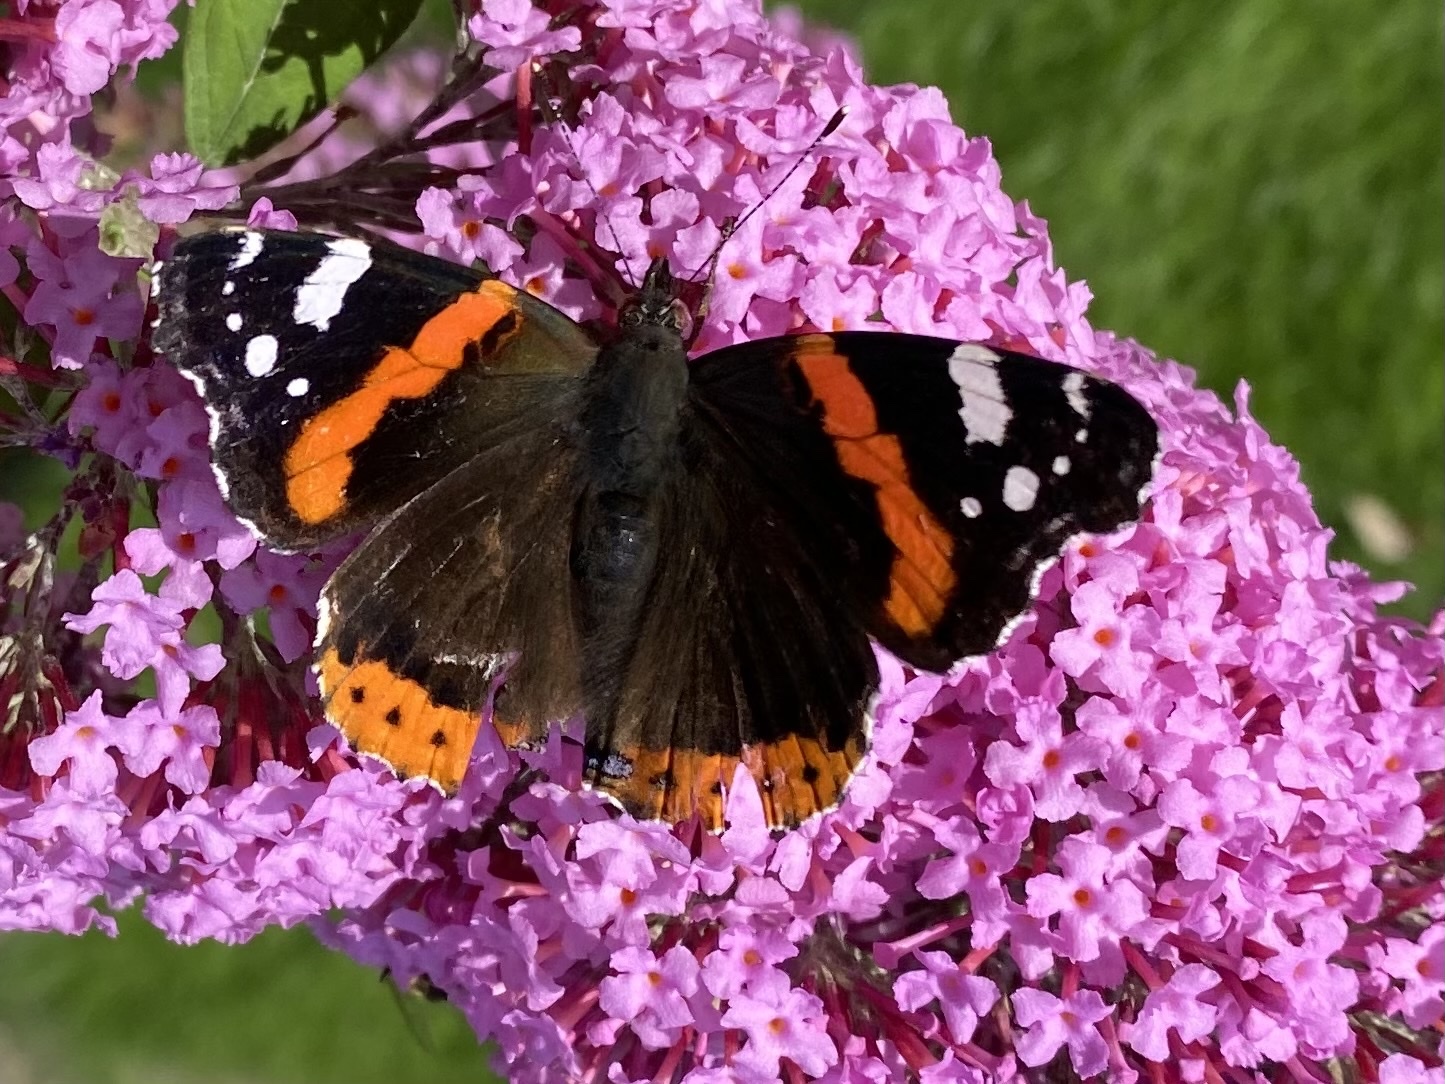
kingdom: Animalia
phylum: Arthropoda
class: Insecta
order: Lepidoptera
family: Nymphalidae
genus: Vanessa
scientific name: Vanessa atalanta
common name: Red admiral
